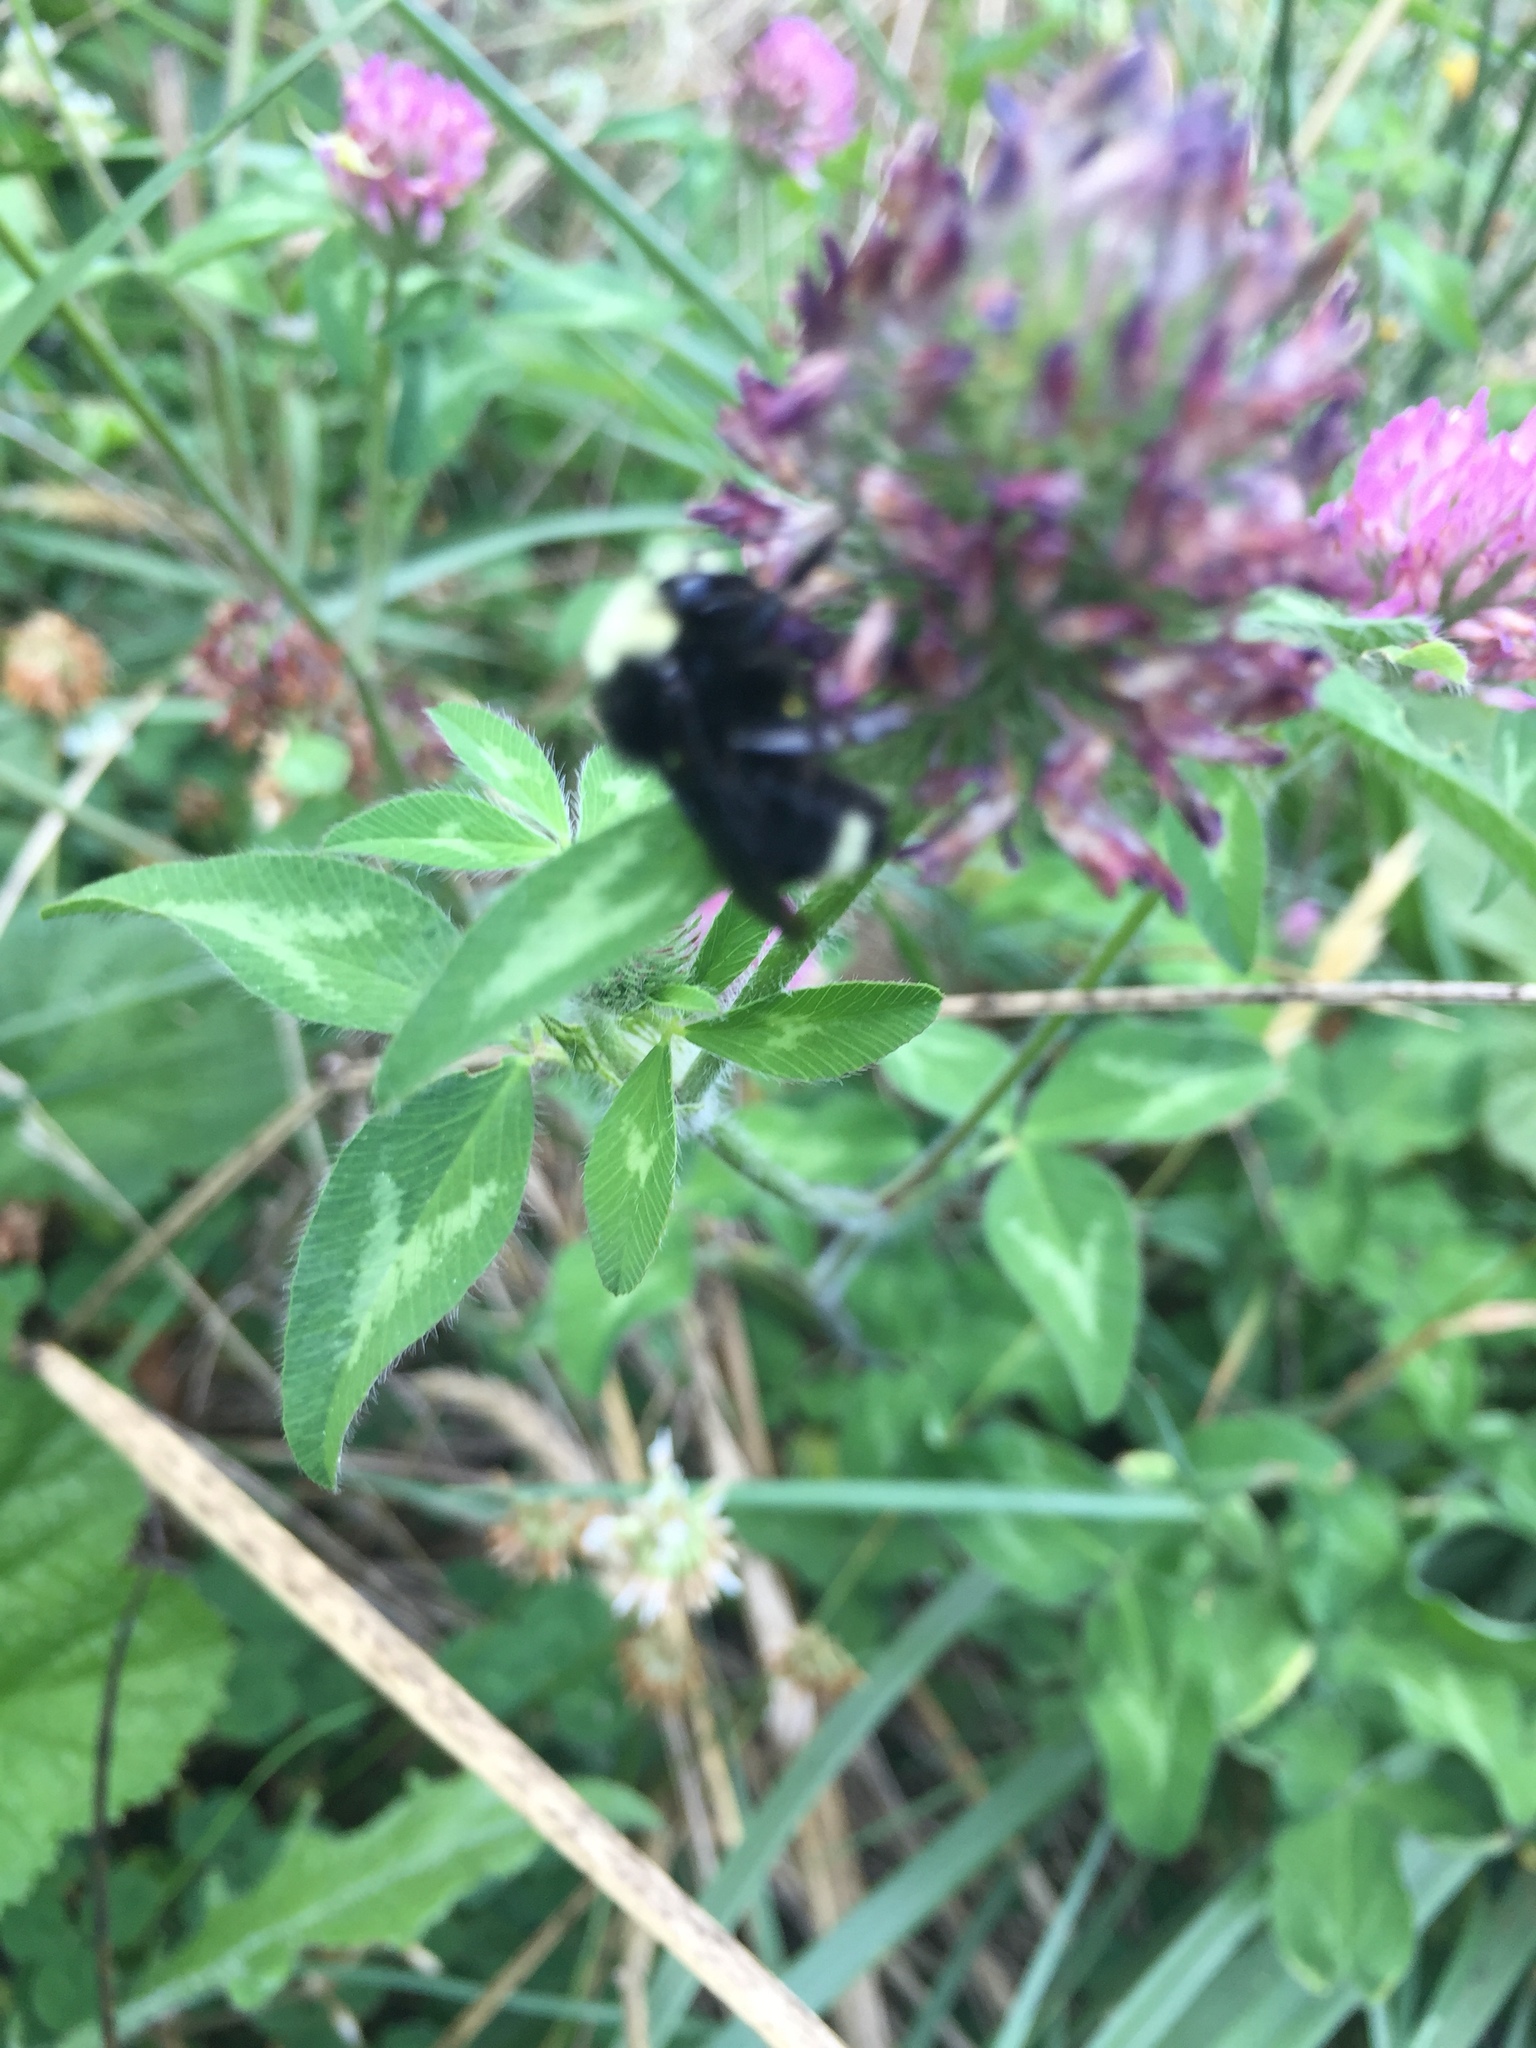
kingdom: Animalia
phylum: Arthropoda
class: Insecta
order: Hymenoptera
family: Apidae
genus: Bombus
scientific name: Bombus vosnesenskii
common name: Vosnesensky bumble bee
